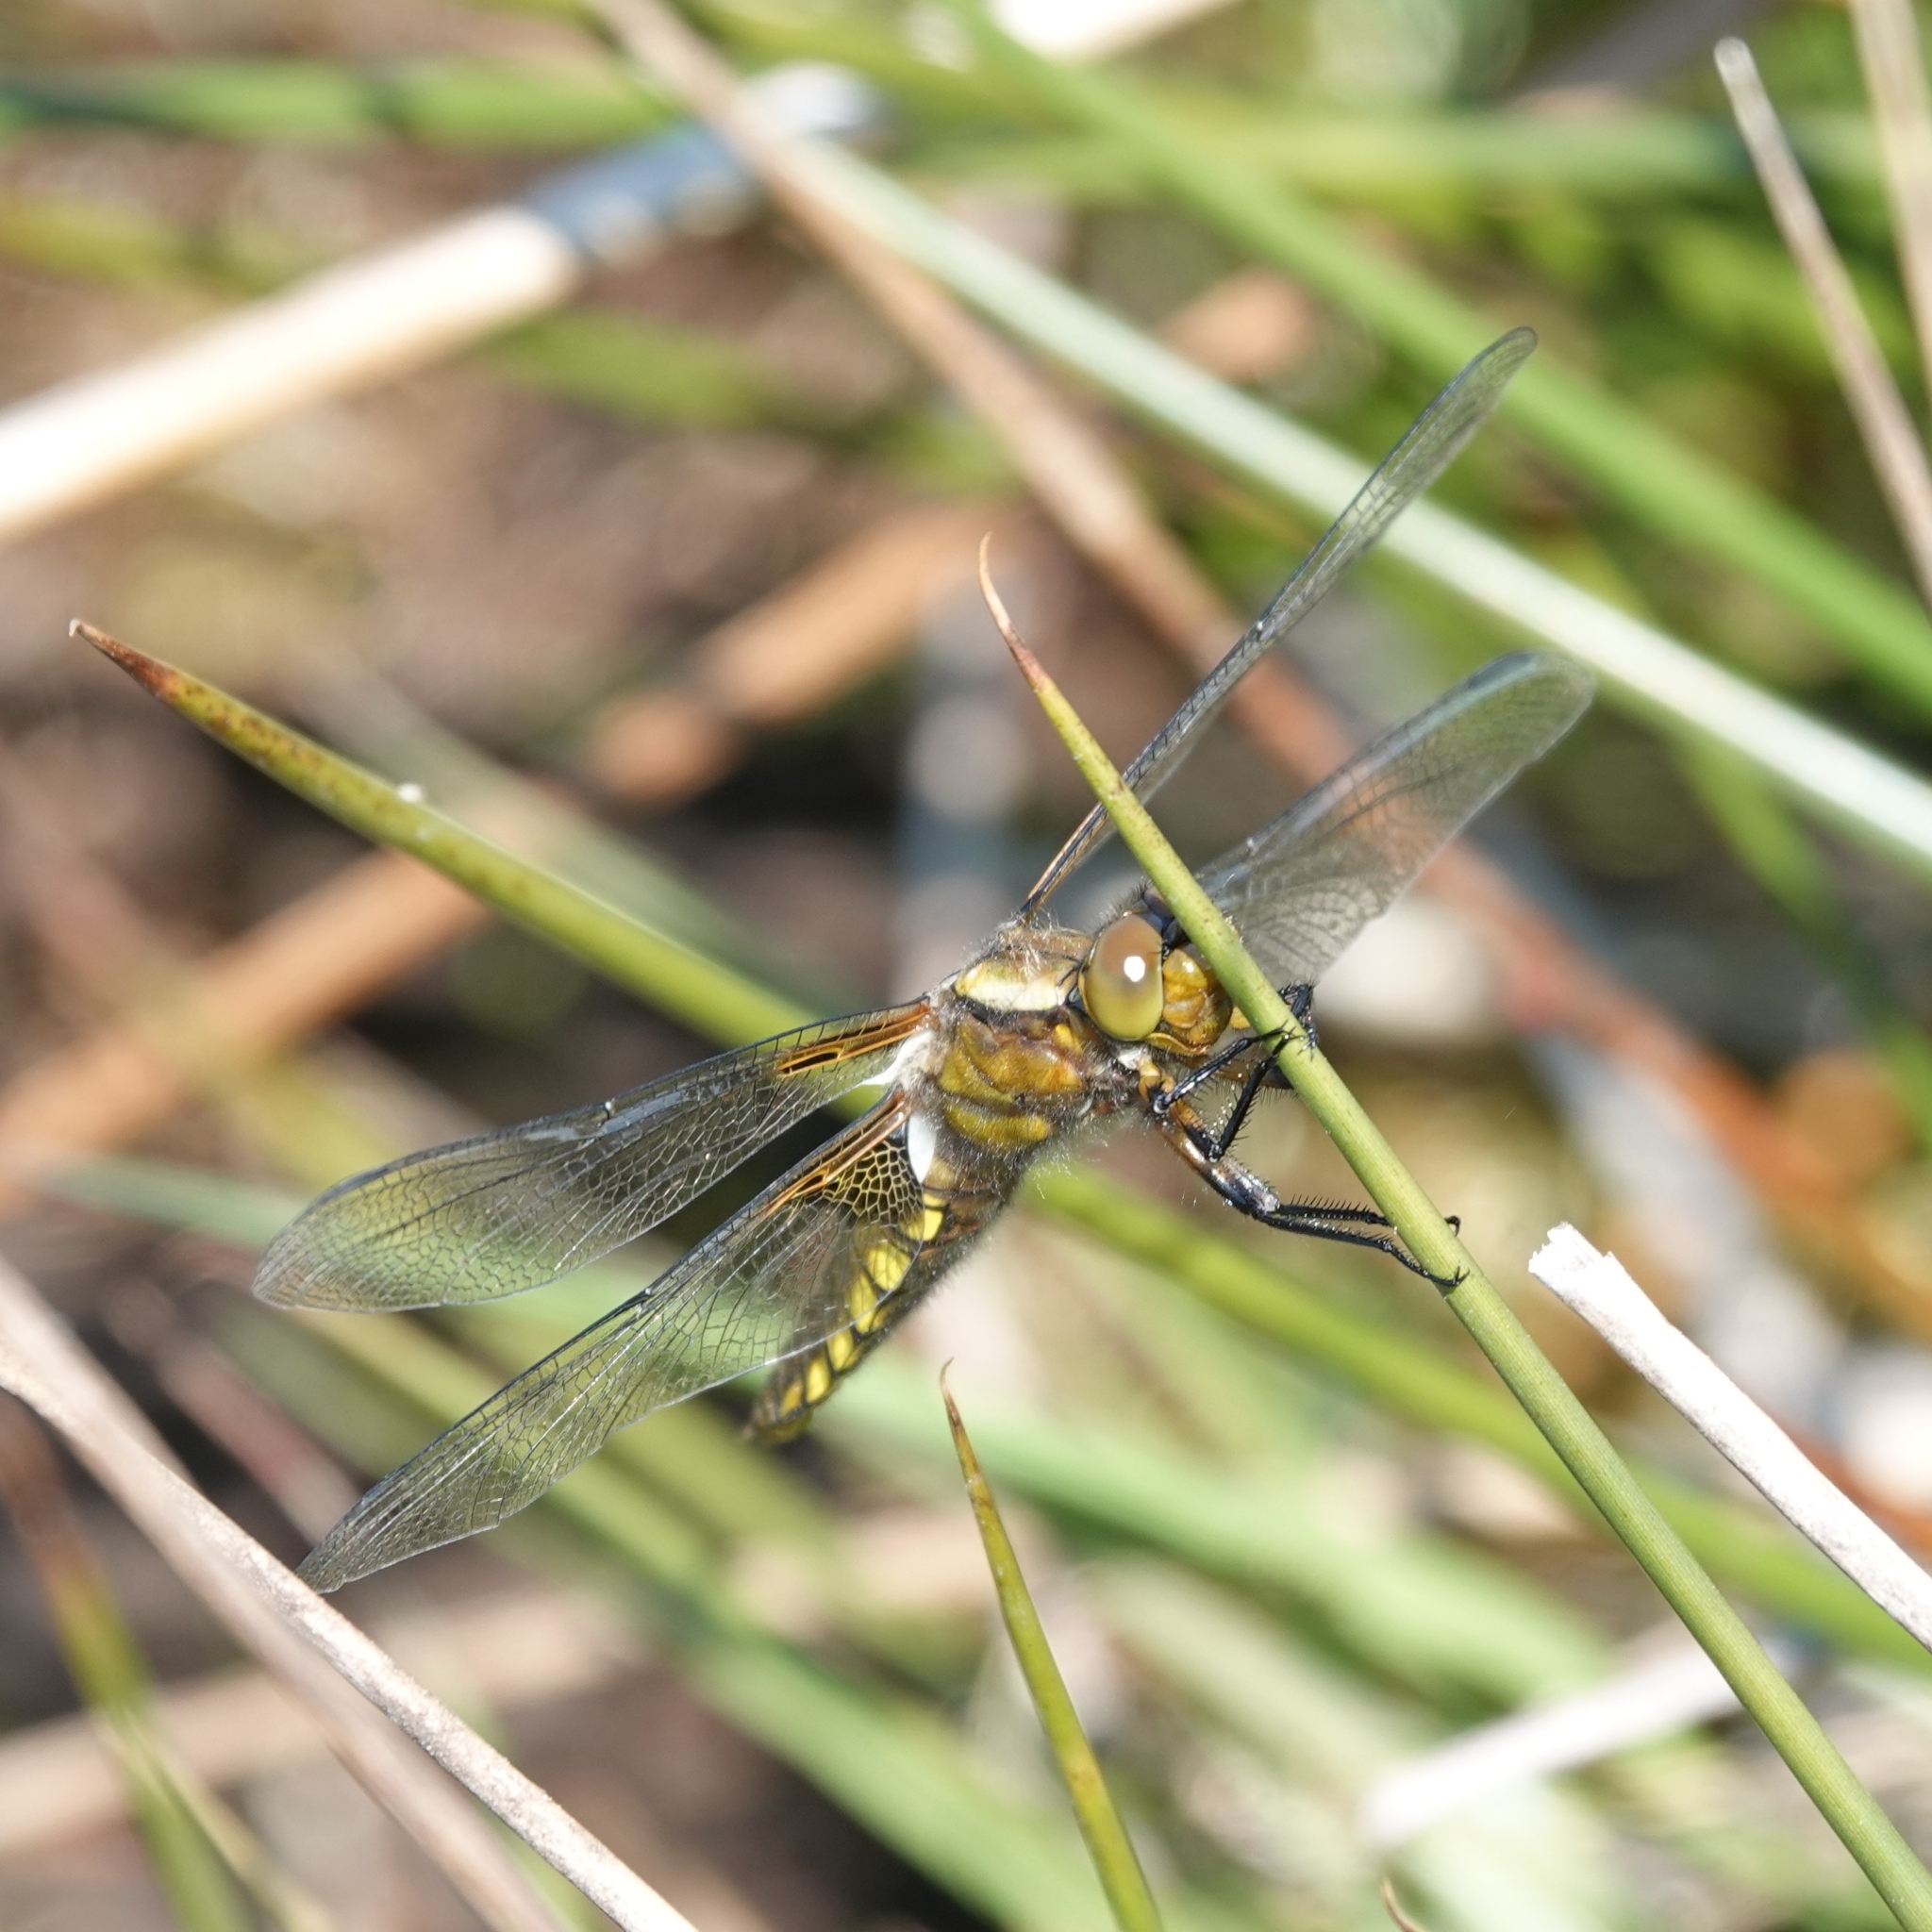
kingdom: Animalia
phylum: Arthropoda
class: Insecta
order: Odonata
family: Libellulidae
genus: Libellula
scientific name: Libellula depressa
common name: Broad-bodied chaser
